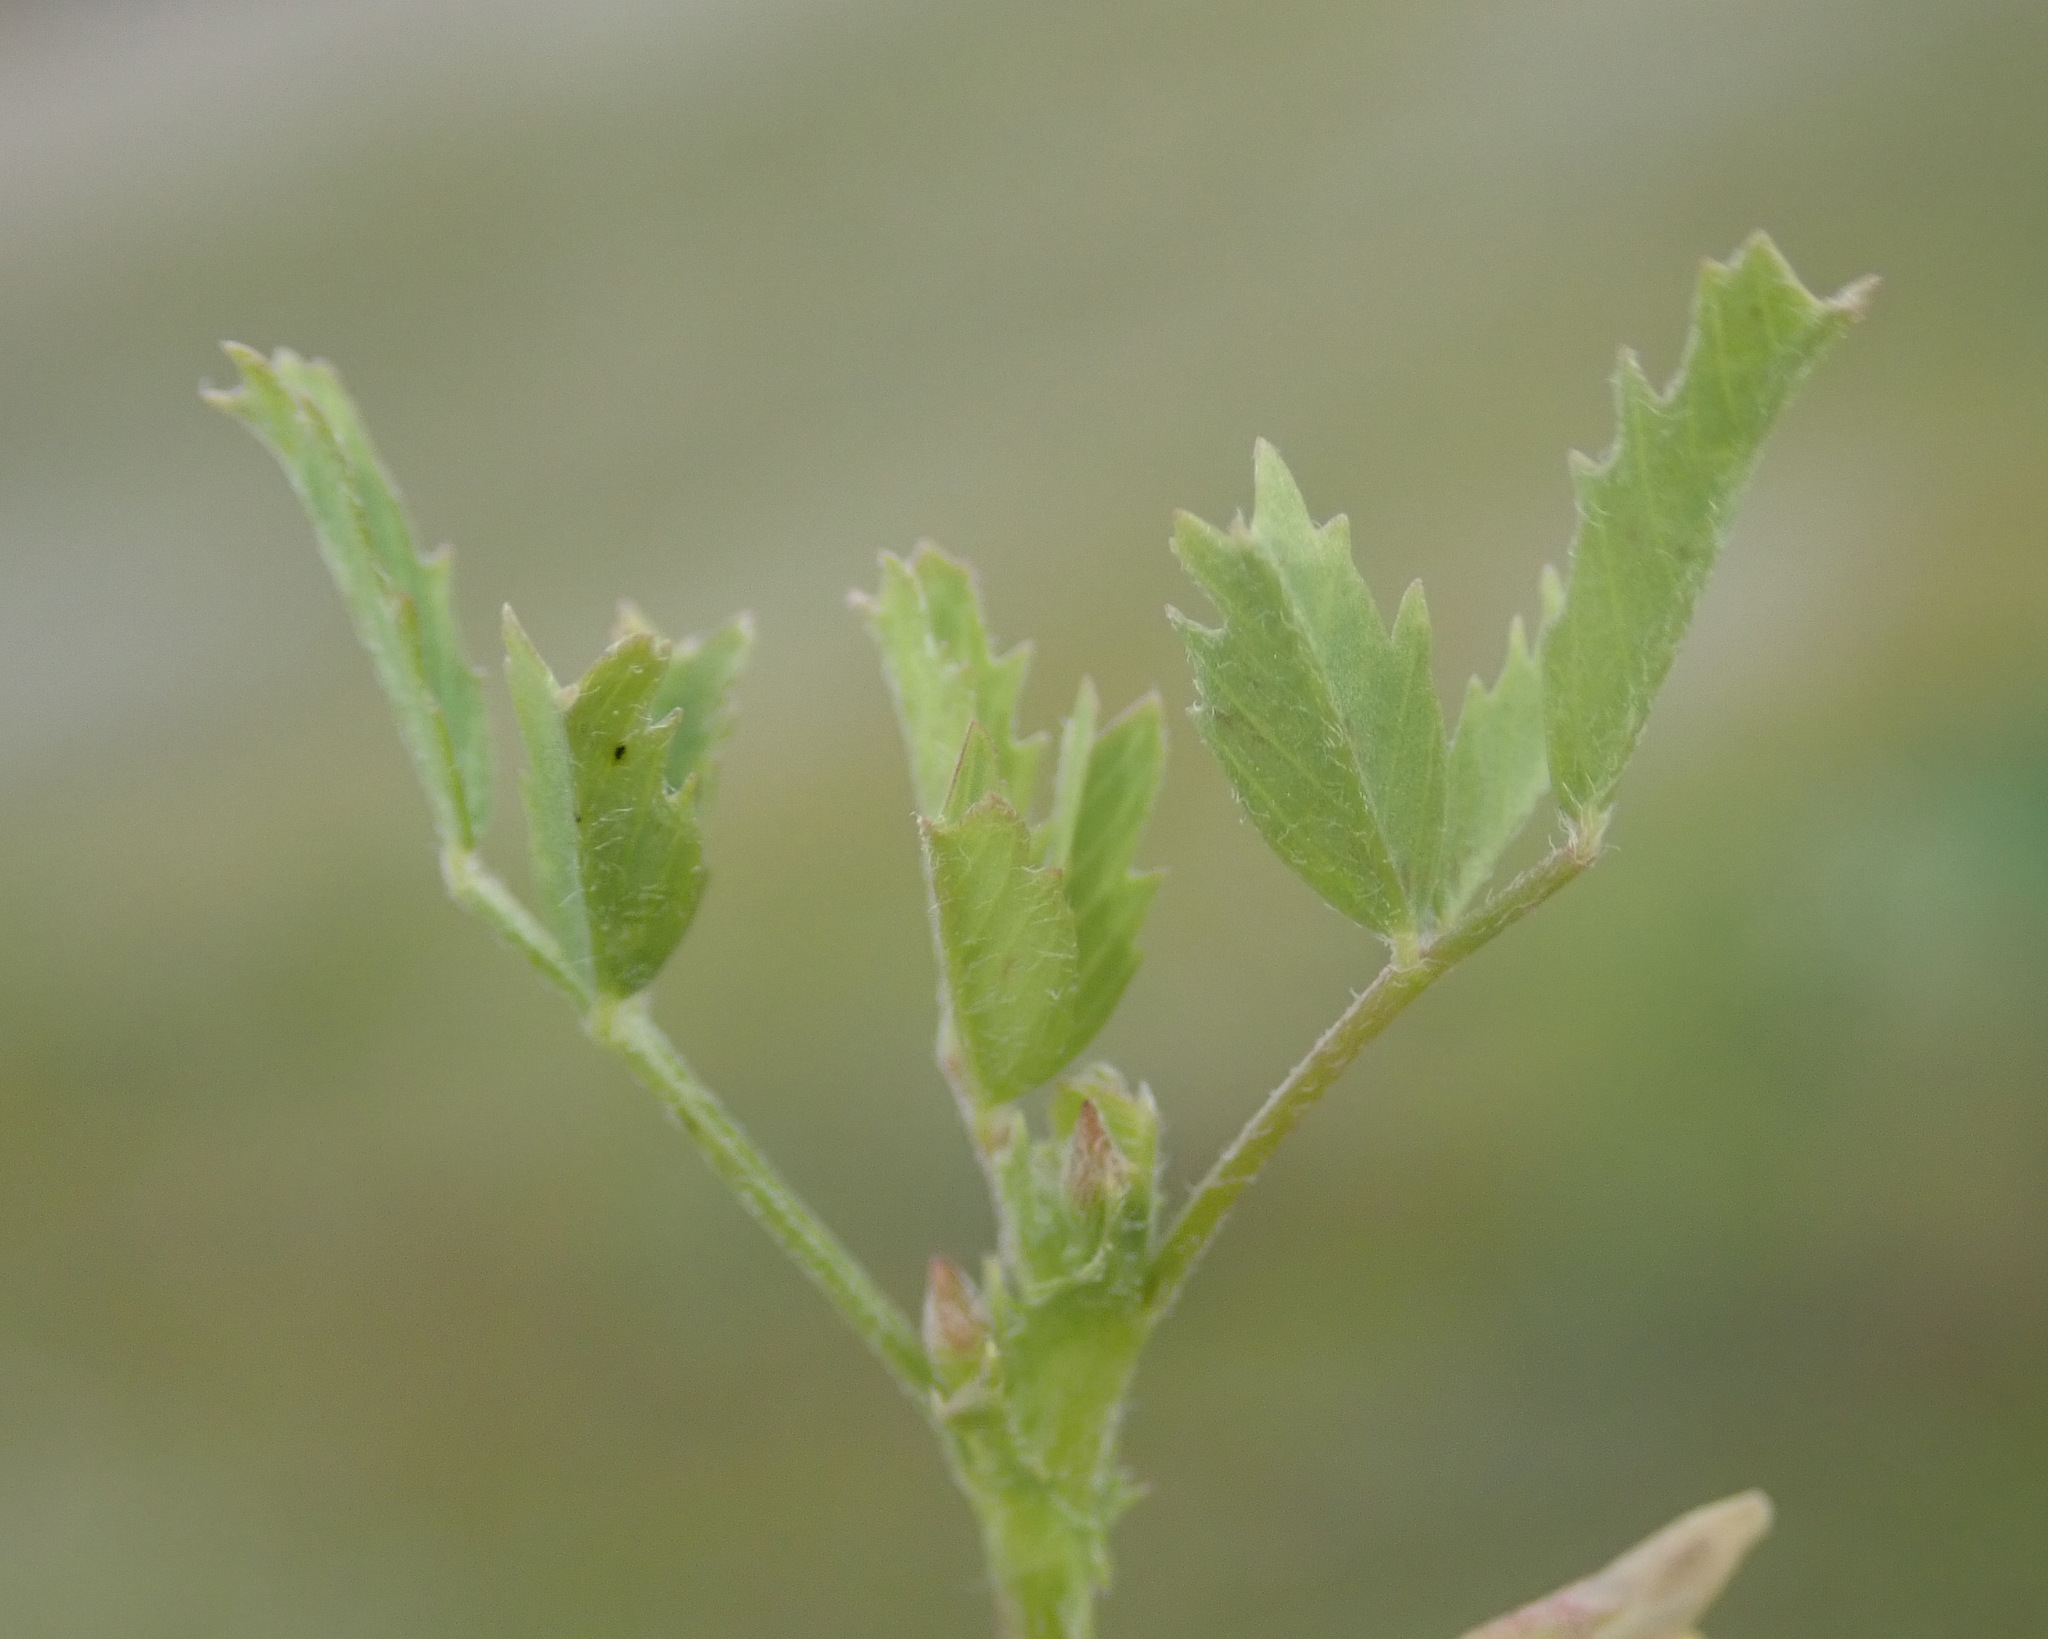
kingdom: Plantae
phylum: Tracheophyta
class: Magnoliopsida
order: Fabales
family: Fabaceae
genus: Medicago
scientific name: Medicago laciniata
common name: Tattered medick
